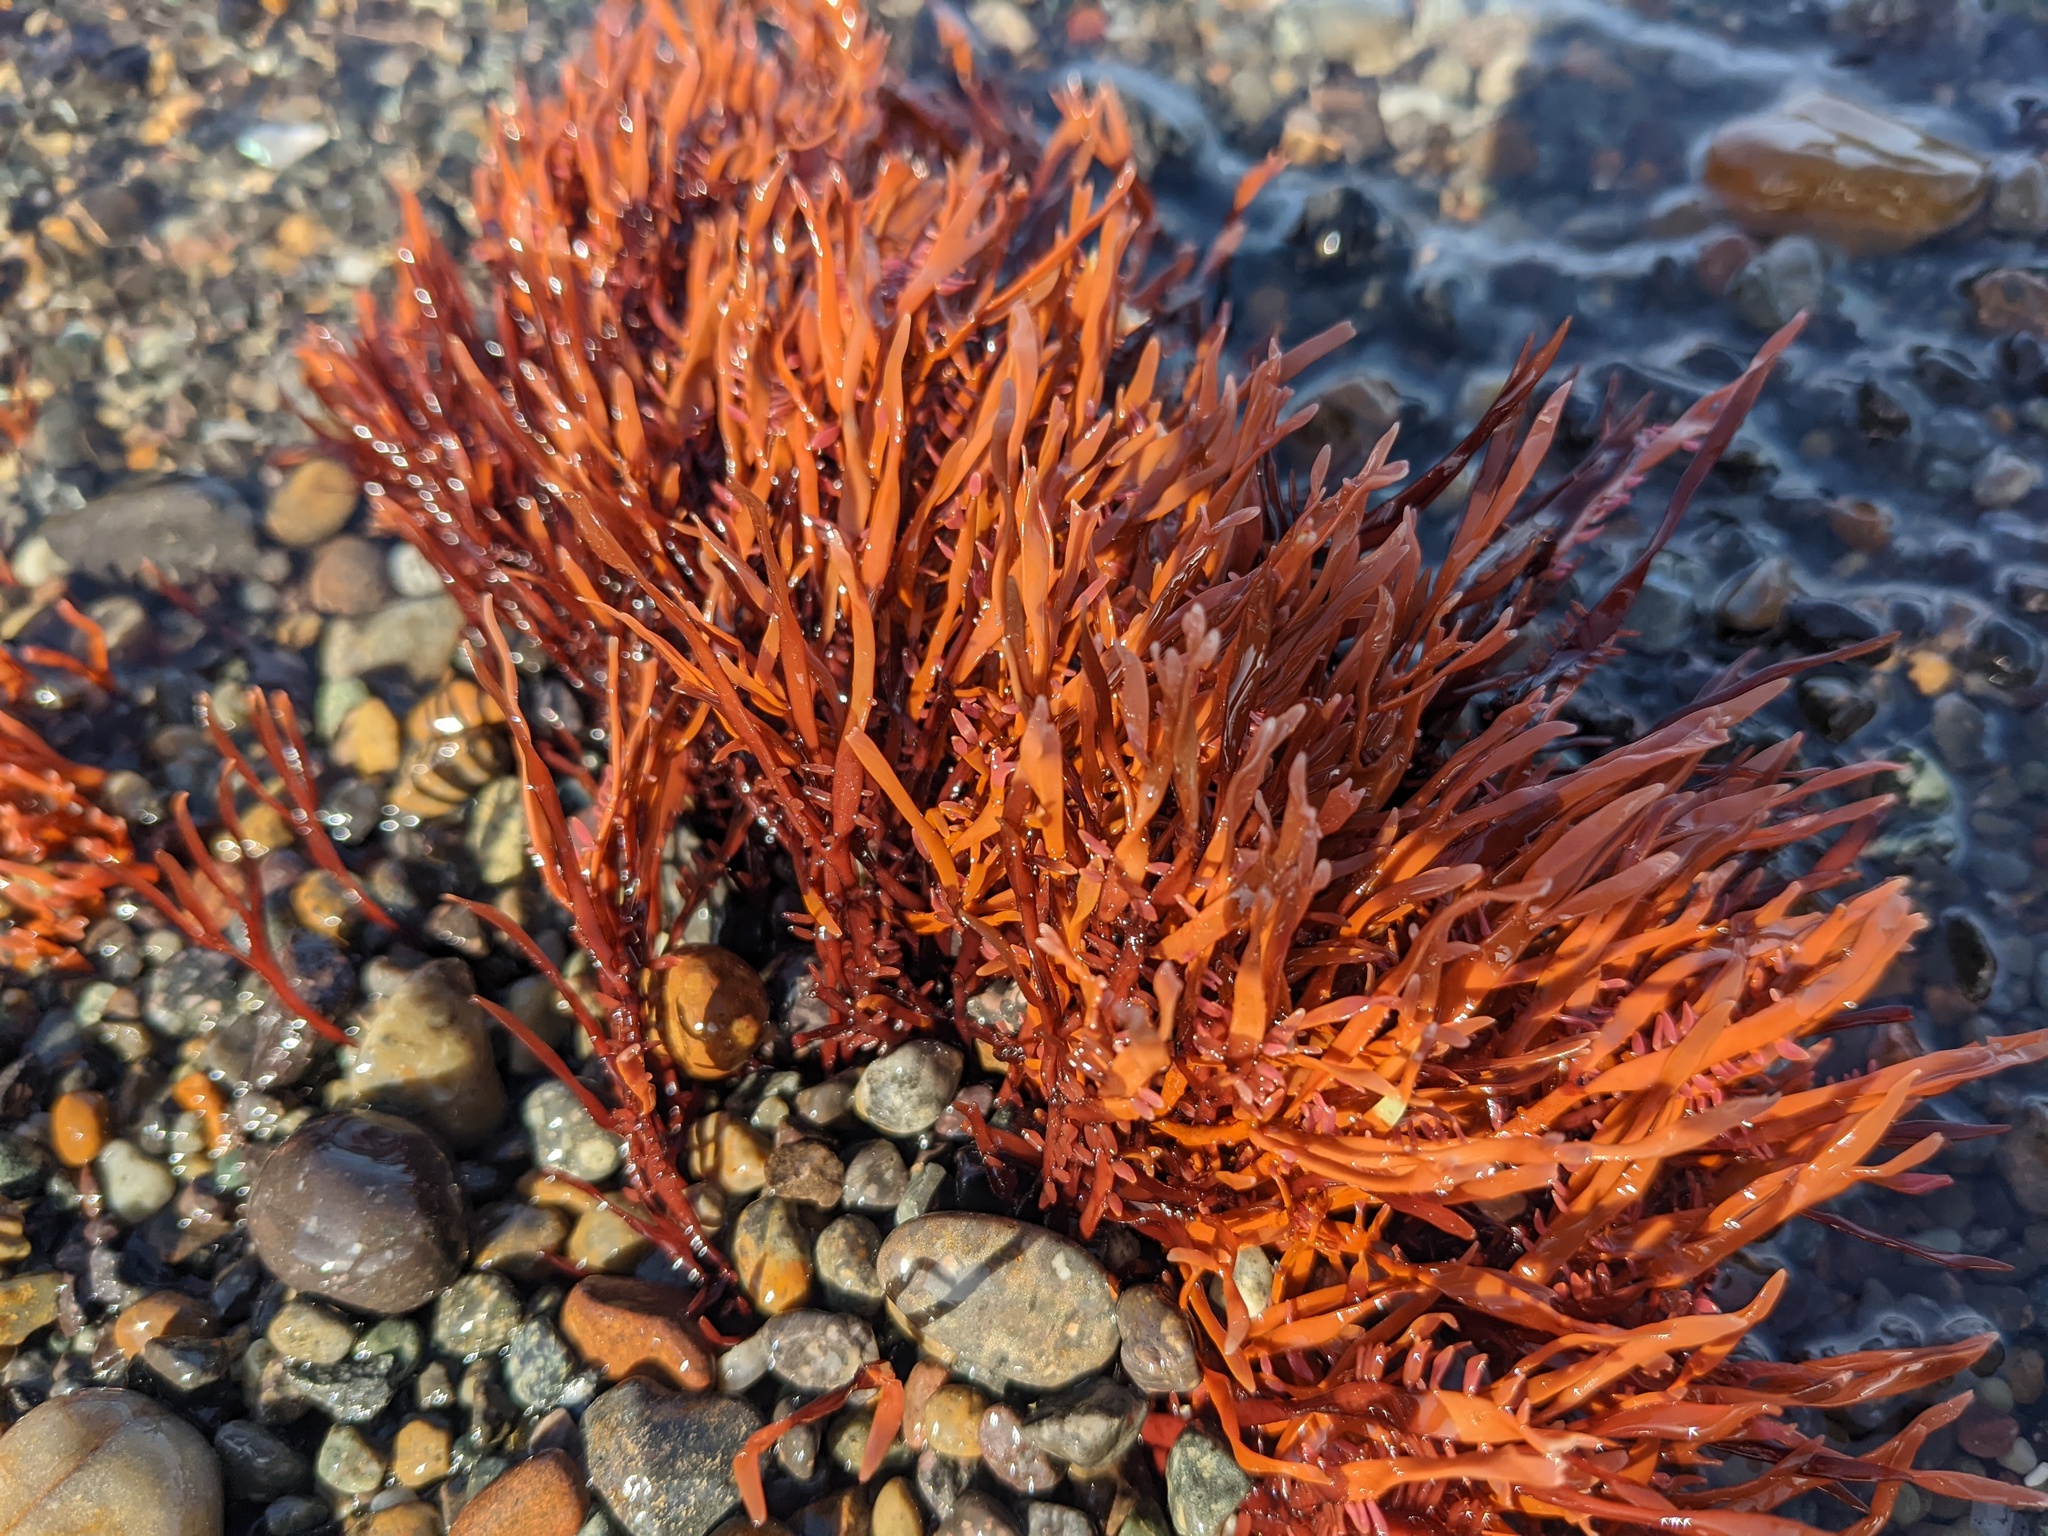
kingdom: Plantae
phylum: Rhodophyta
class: Florideophyceae
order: Halymeniales
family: Halymeniaceae
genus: Grateloupia
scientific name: Grateloupia Prionitis lanceolata
